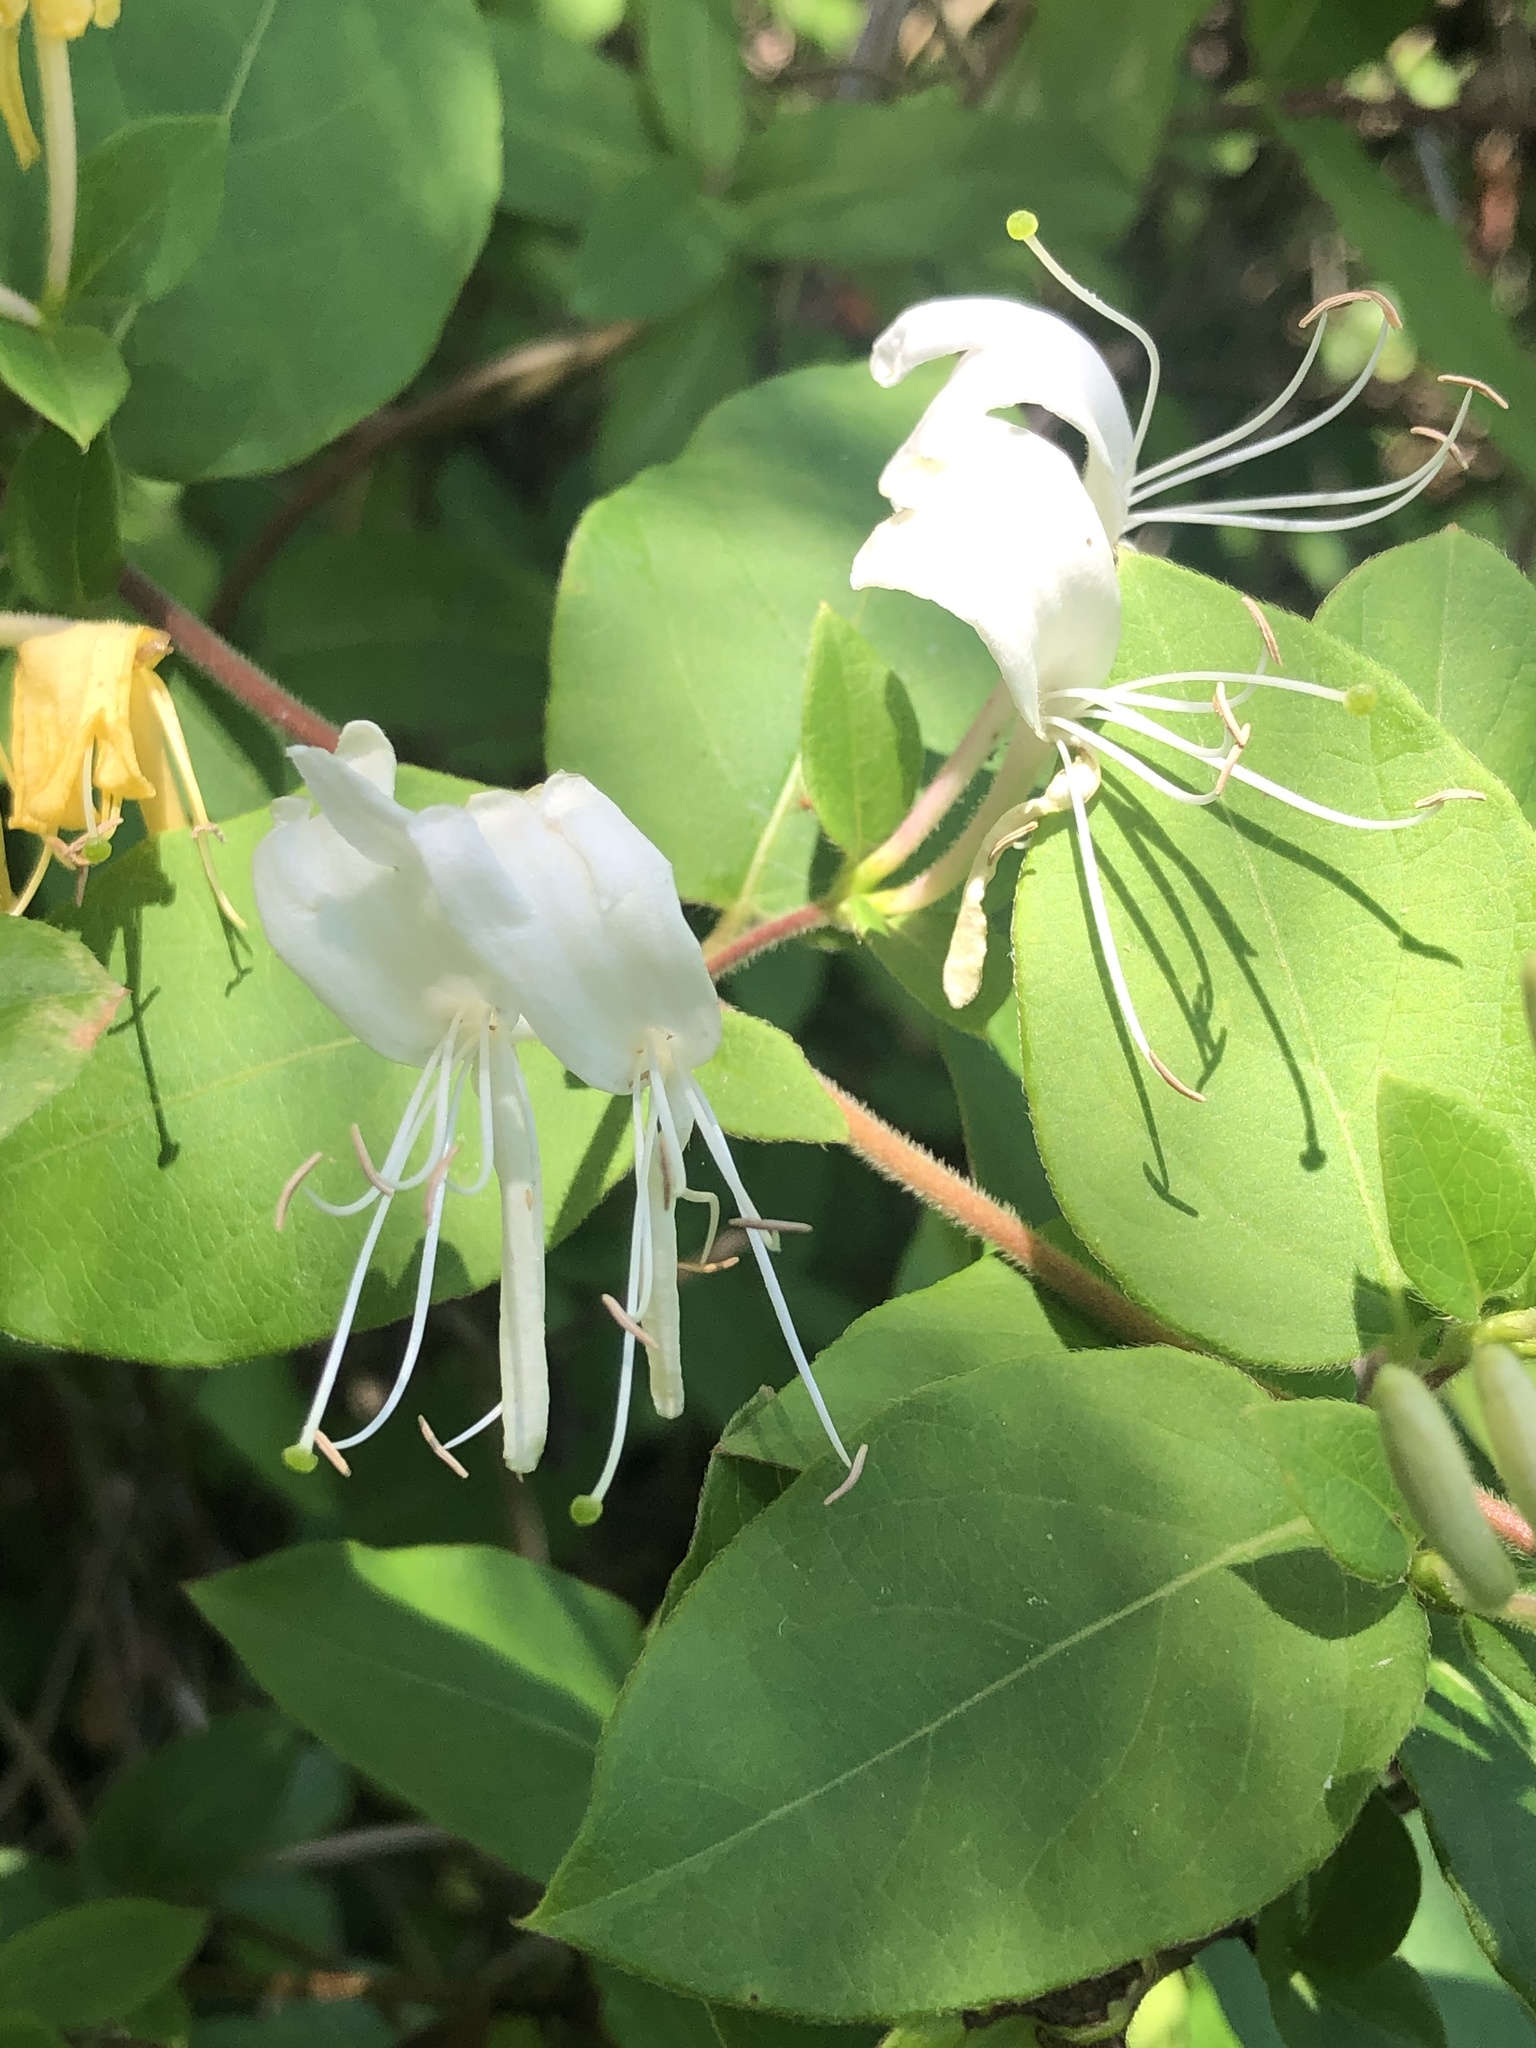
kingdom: Plantae
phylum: Tracheophyta
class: Magnoliopsida
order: Dipsacales
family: Caprifoliaceae
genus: Lonicera
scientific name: Lonicera japonica
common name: Japanese honeysuckle
